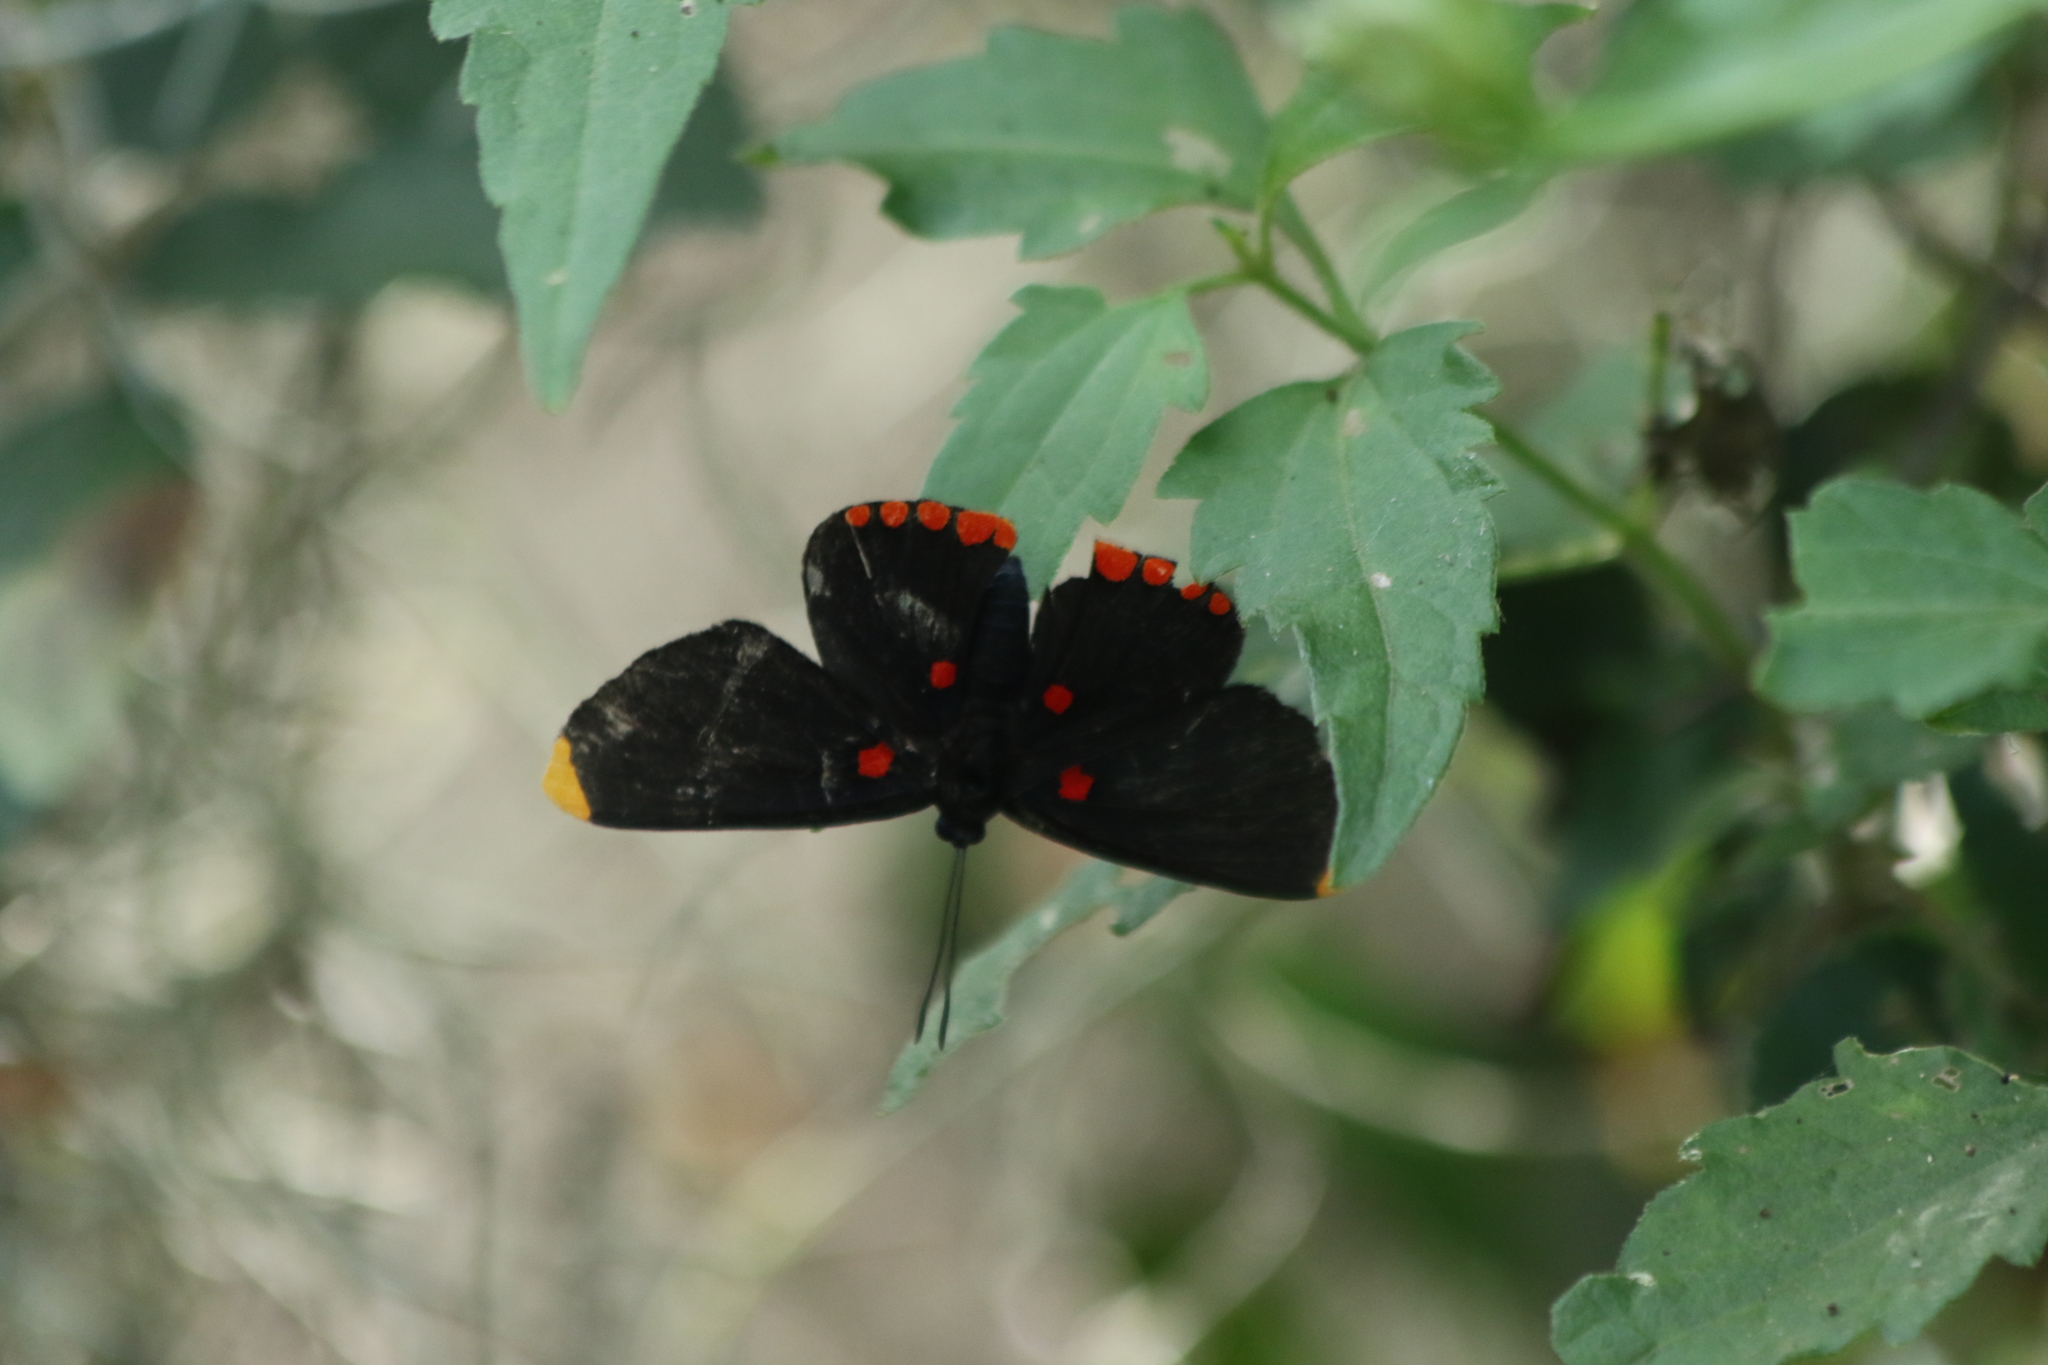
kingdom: Animalia
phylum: Arthropoda
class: Insecta
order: Lepidoptera
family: Lycaenidae
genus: Melanis
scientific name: Melanis pixe
